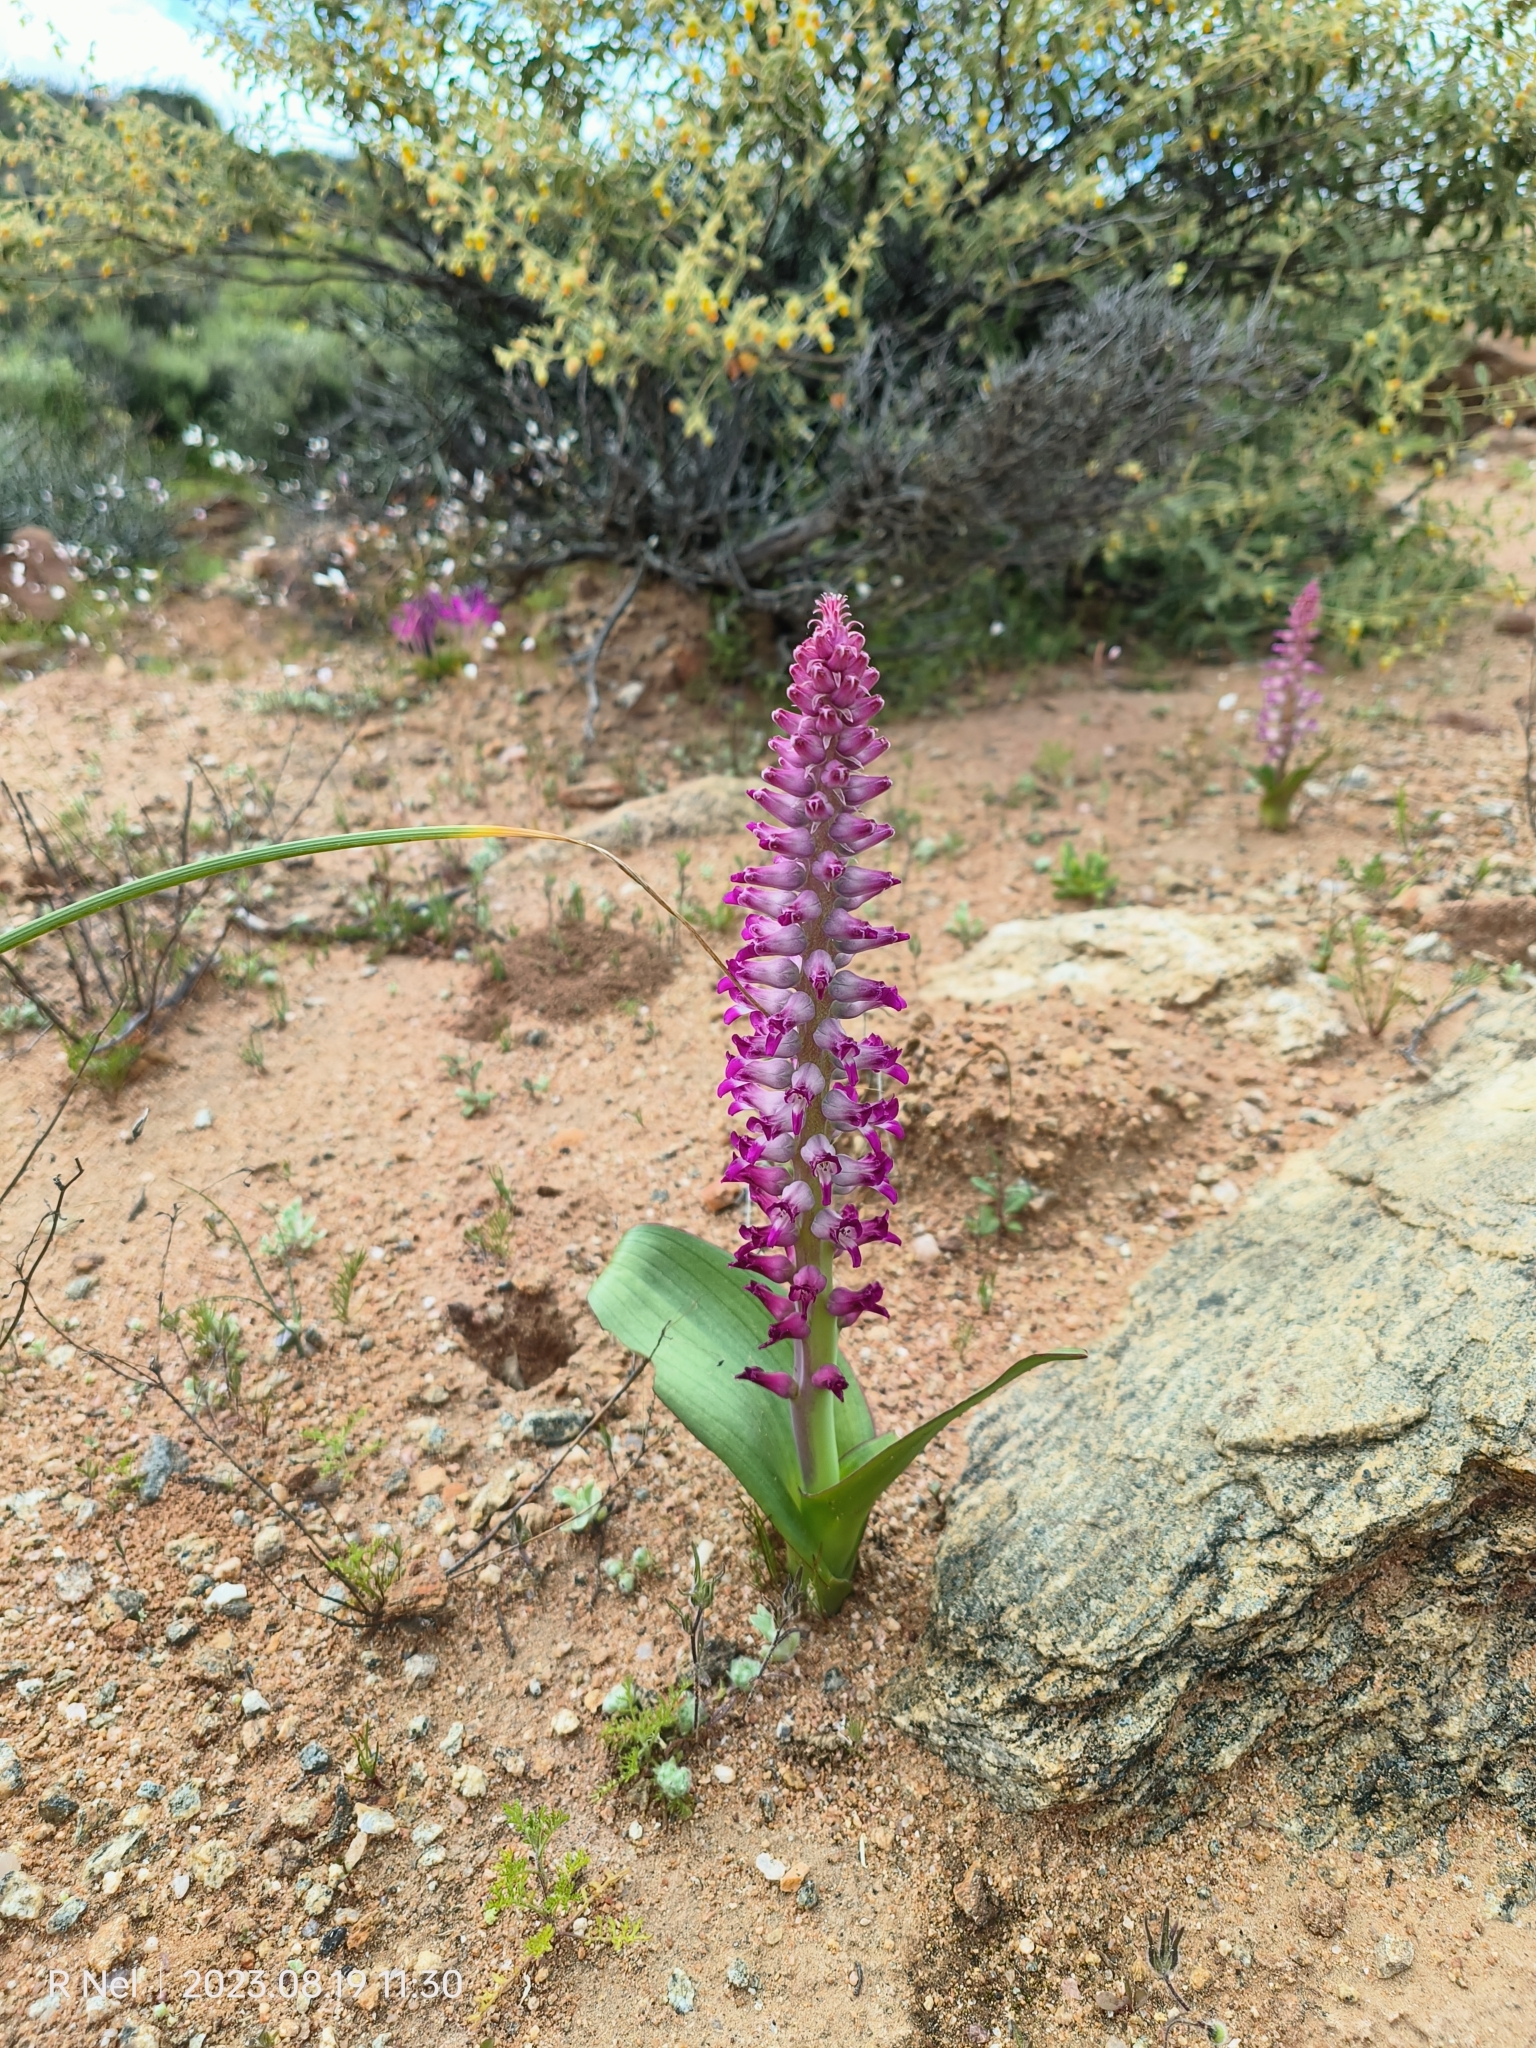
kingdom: Plantae
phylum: Tracheophyta
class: Liliopsida
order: Asparagales
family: Asparagaceae
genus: Lachenalia
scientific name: Lachenalia carnosa
